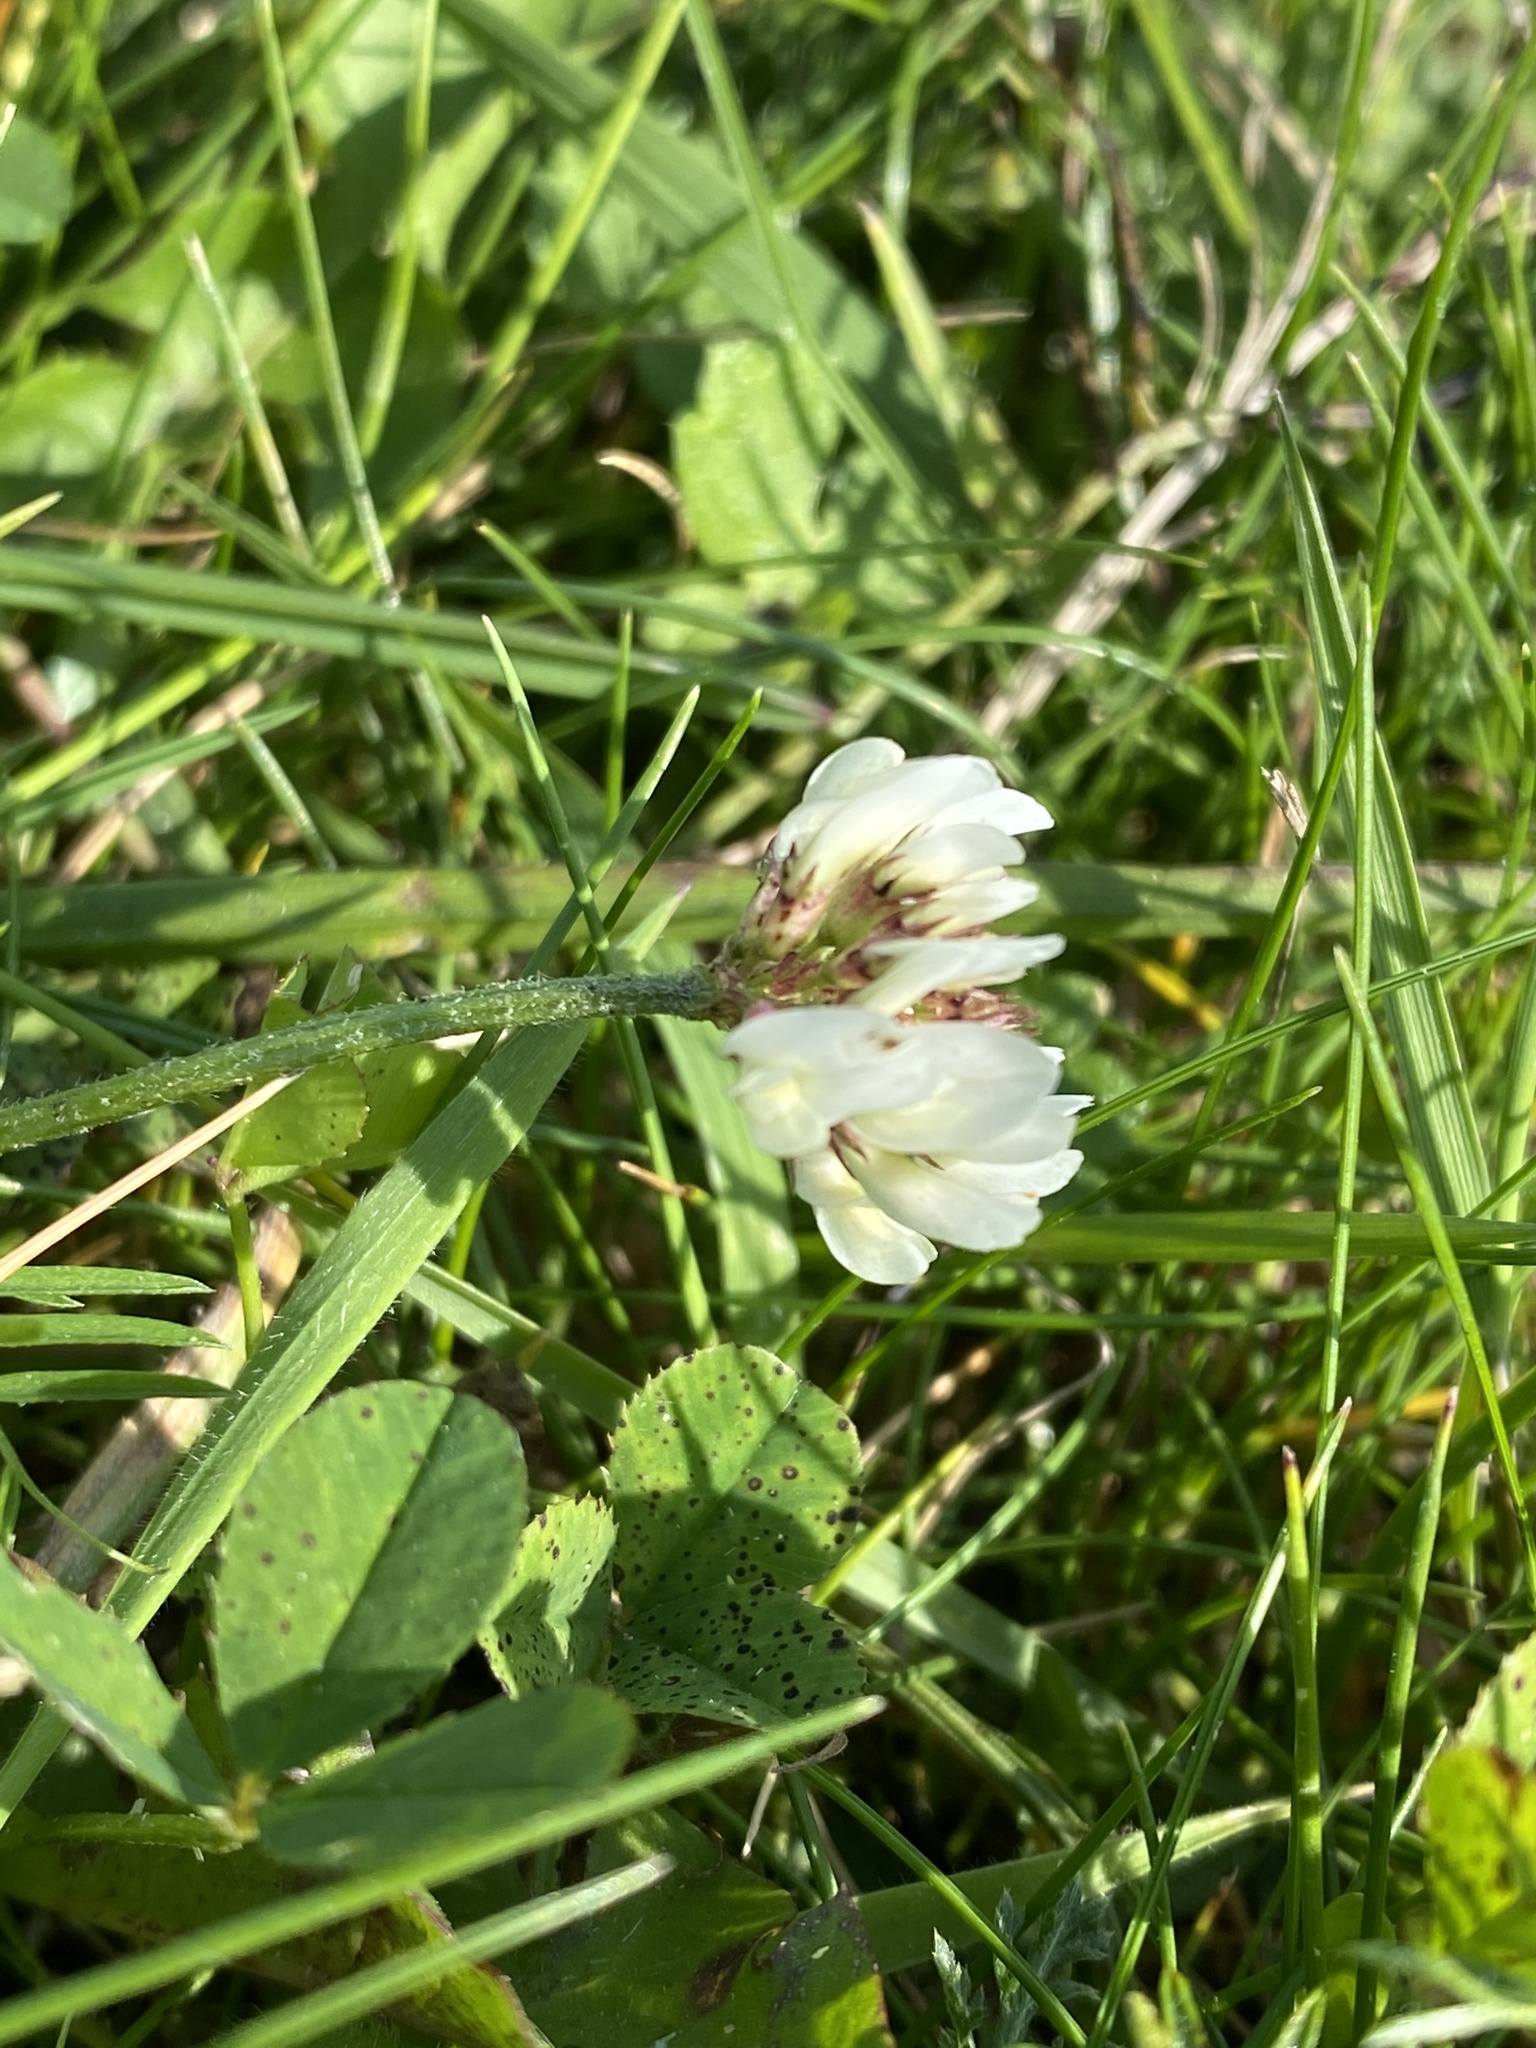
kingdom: Plantae
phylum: Tracheophyta
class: Magnoliopsida
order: Fabales
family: Fabaceae
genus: Trifolium
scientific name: Trifolium repens
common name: White clover
